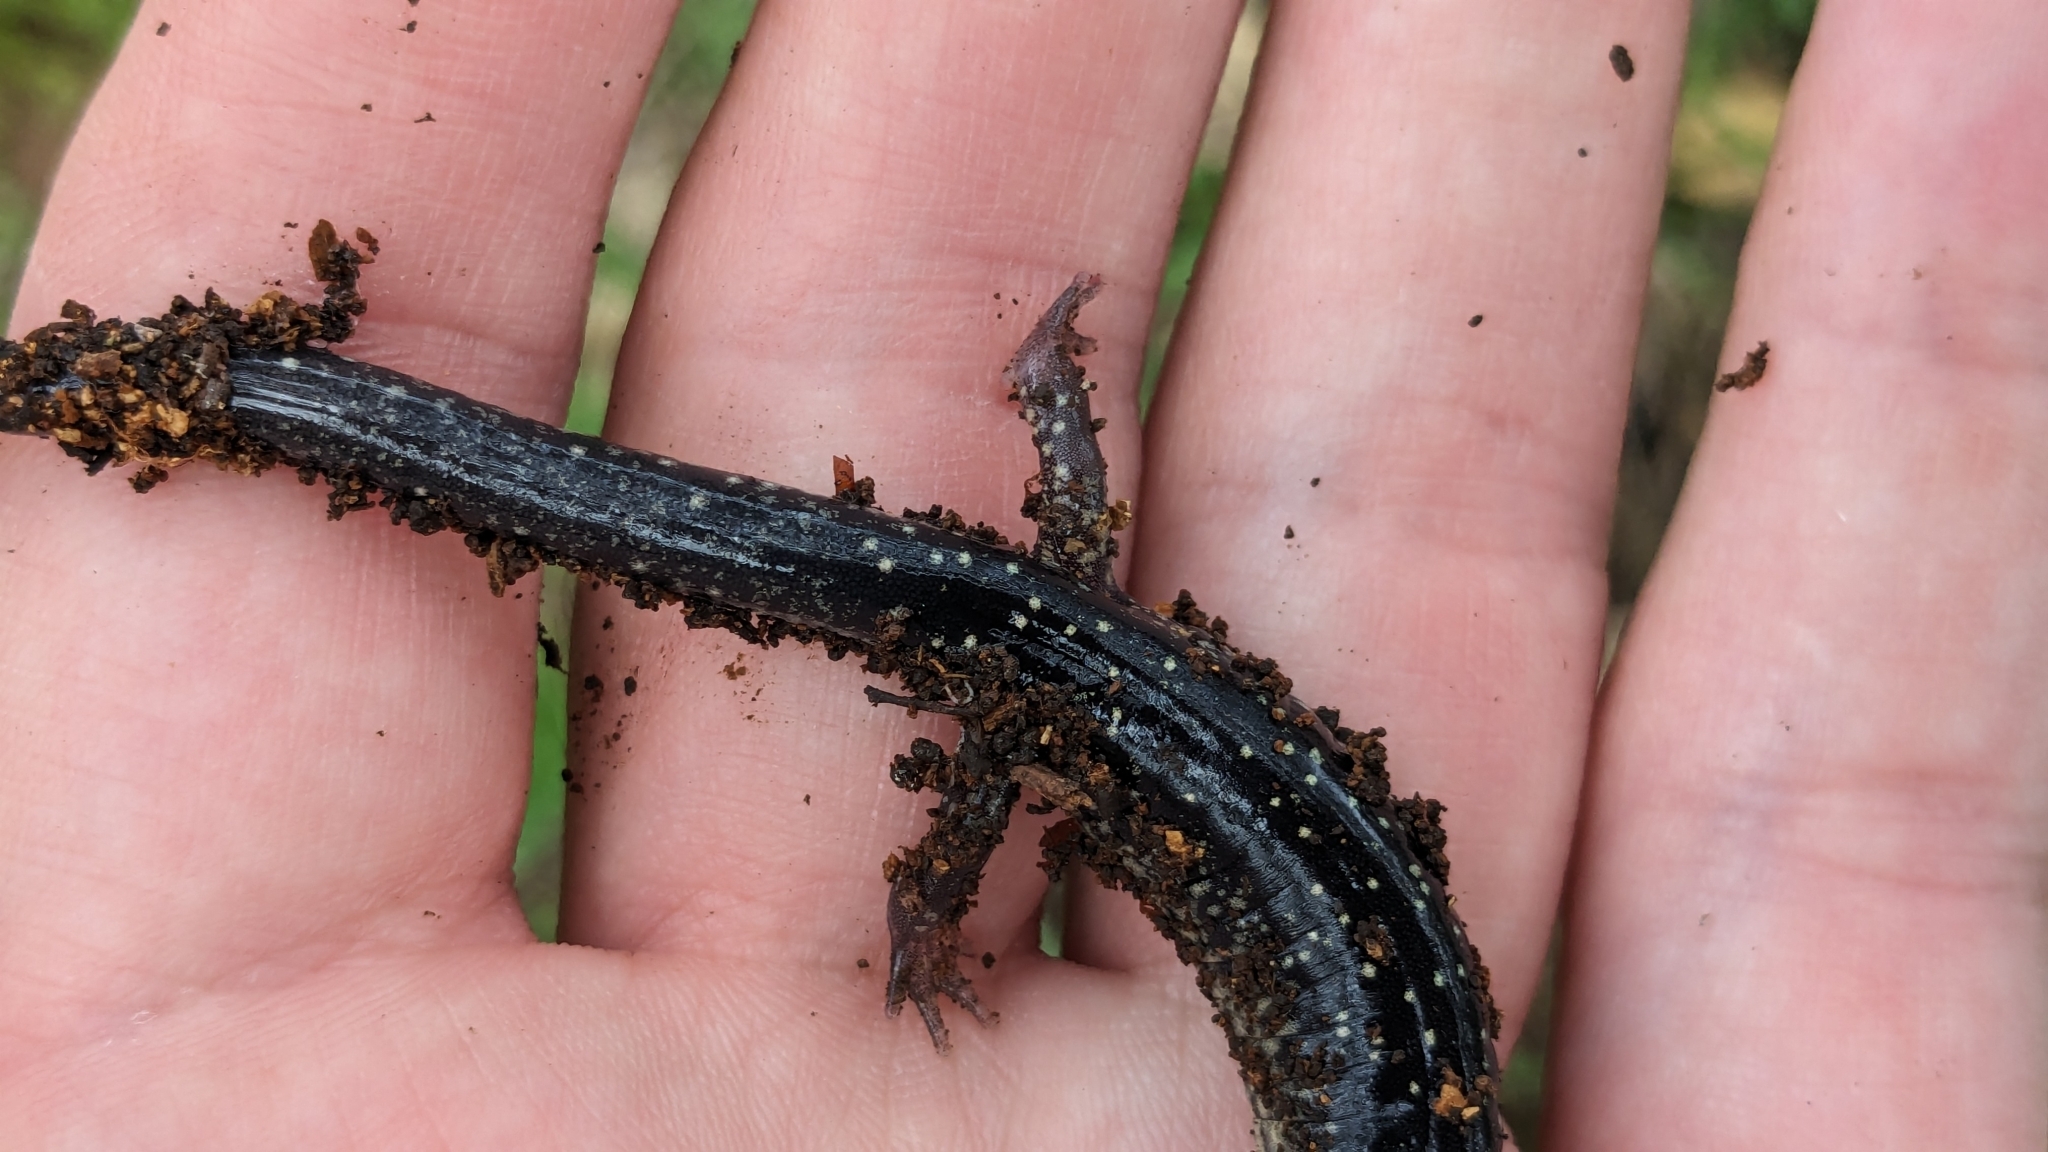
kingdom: Animalia
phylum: Chordata
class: Amphibia
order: Caudata
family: Plethodontidae
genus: Plethodon
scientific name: Plethodon albagula
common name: Western slimy salamander
